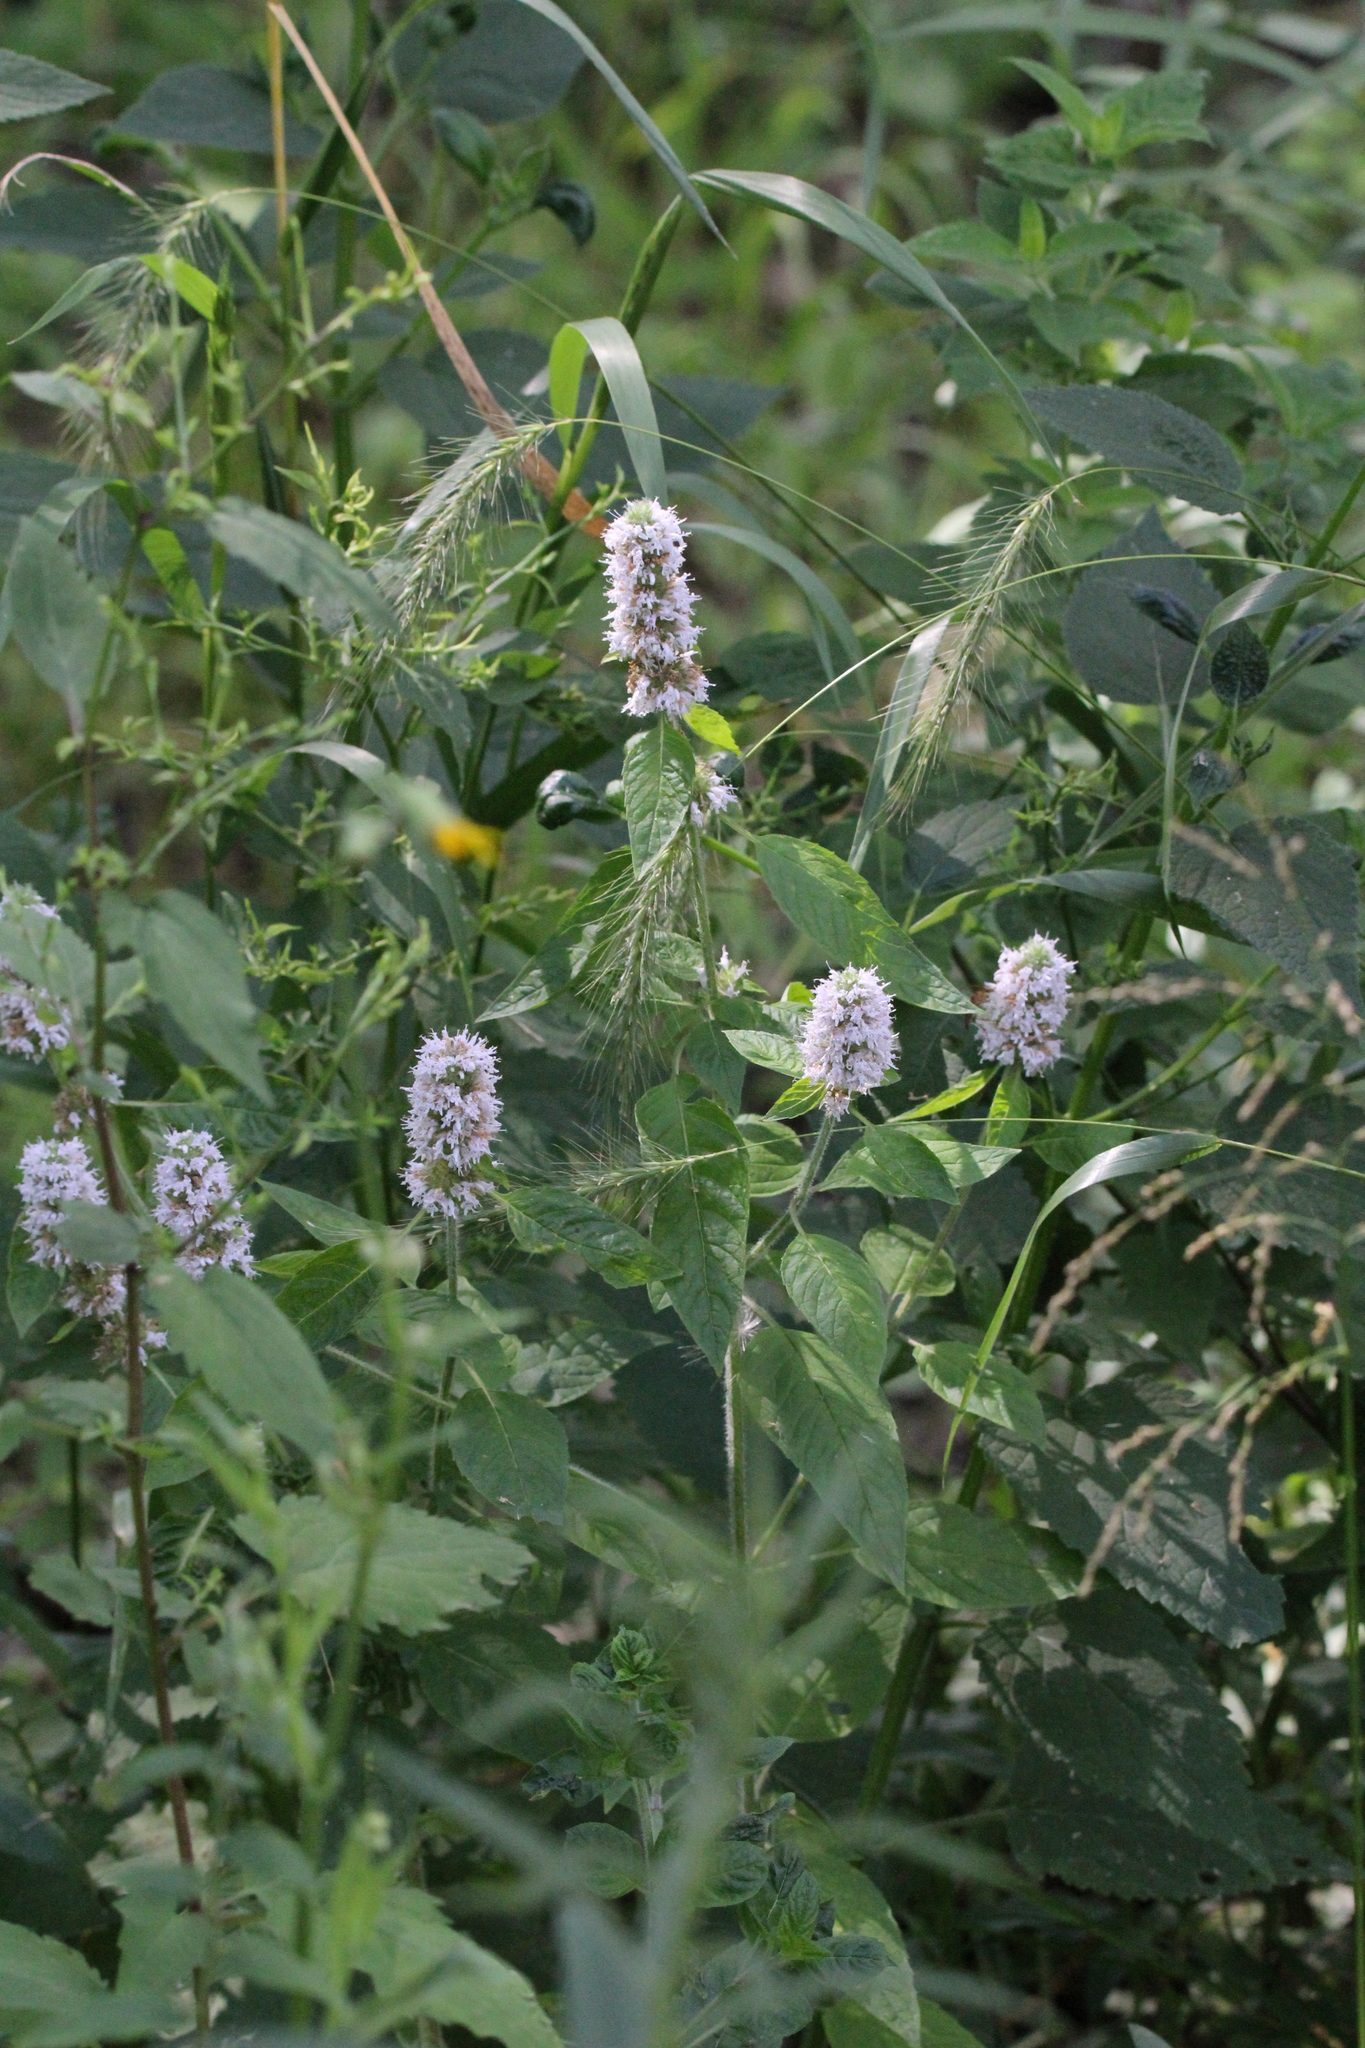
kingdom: Plantae
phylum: Tracheophyta
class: Magnoliopsida
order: Lamiales
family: Lamiaceae
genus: Blephilia
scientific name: Blephilia hirsuta
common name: Hairy blephilia
